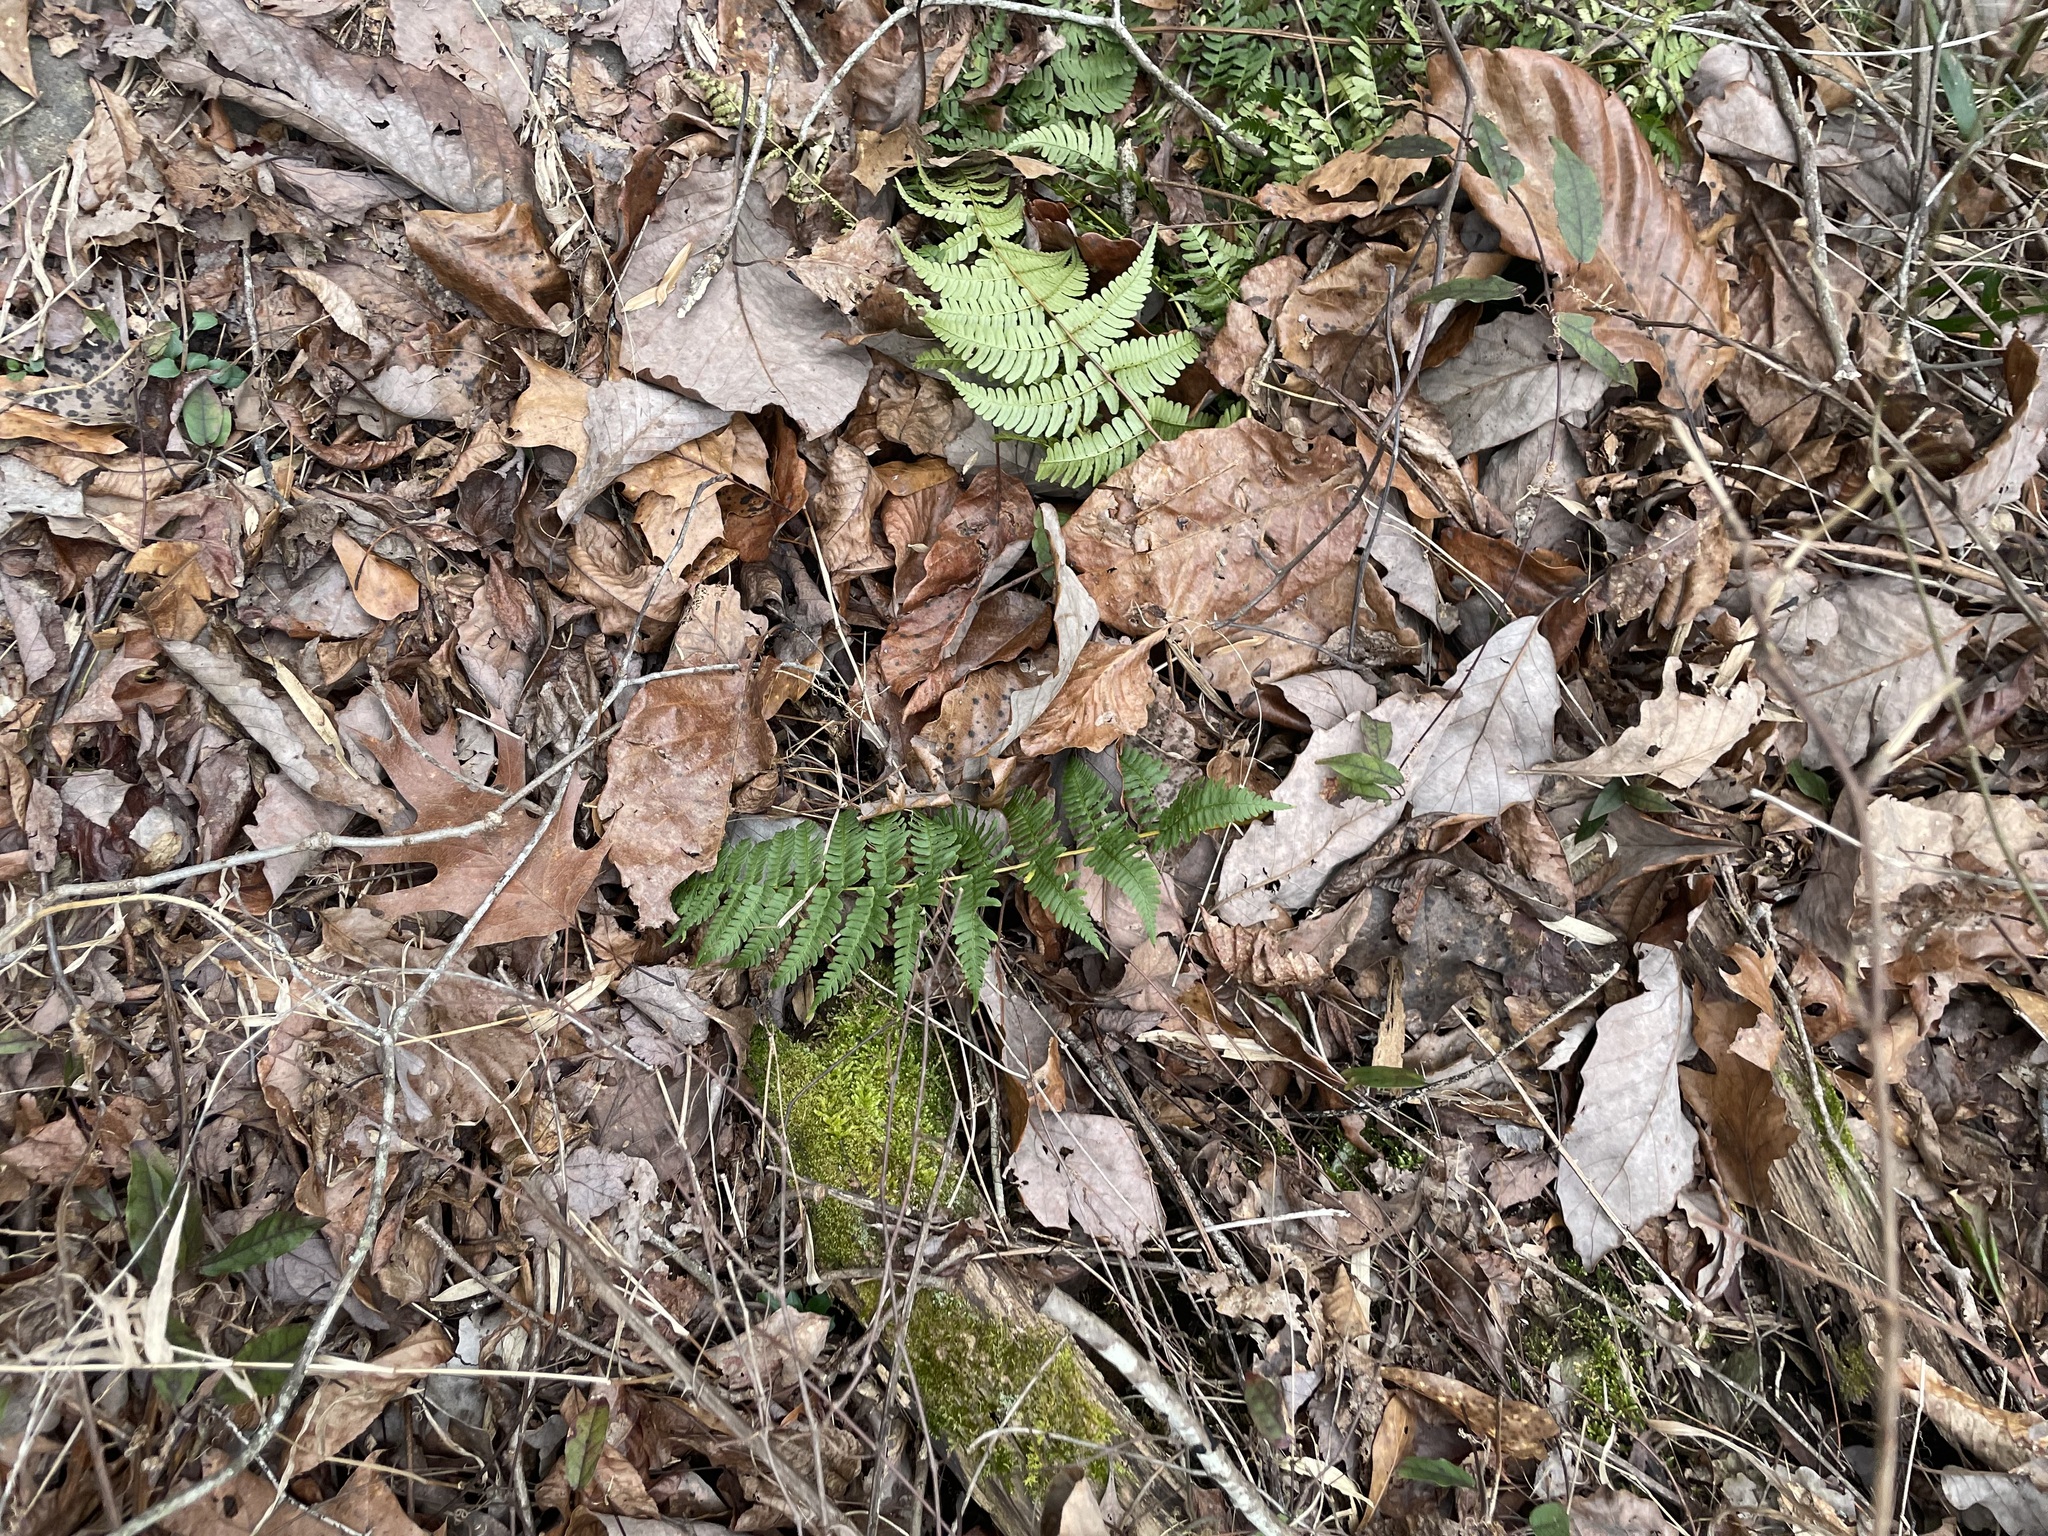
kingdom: Plantae
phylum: Tracheophyta
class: Polypodiopsida
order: Polypodiales
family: Dryopteridaceae
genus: Dryopteris
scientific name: Dryopteris marginalis
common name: Marginal wood fern
